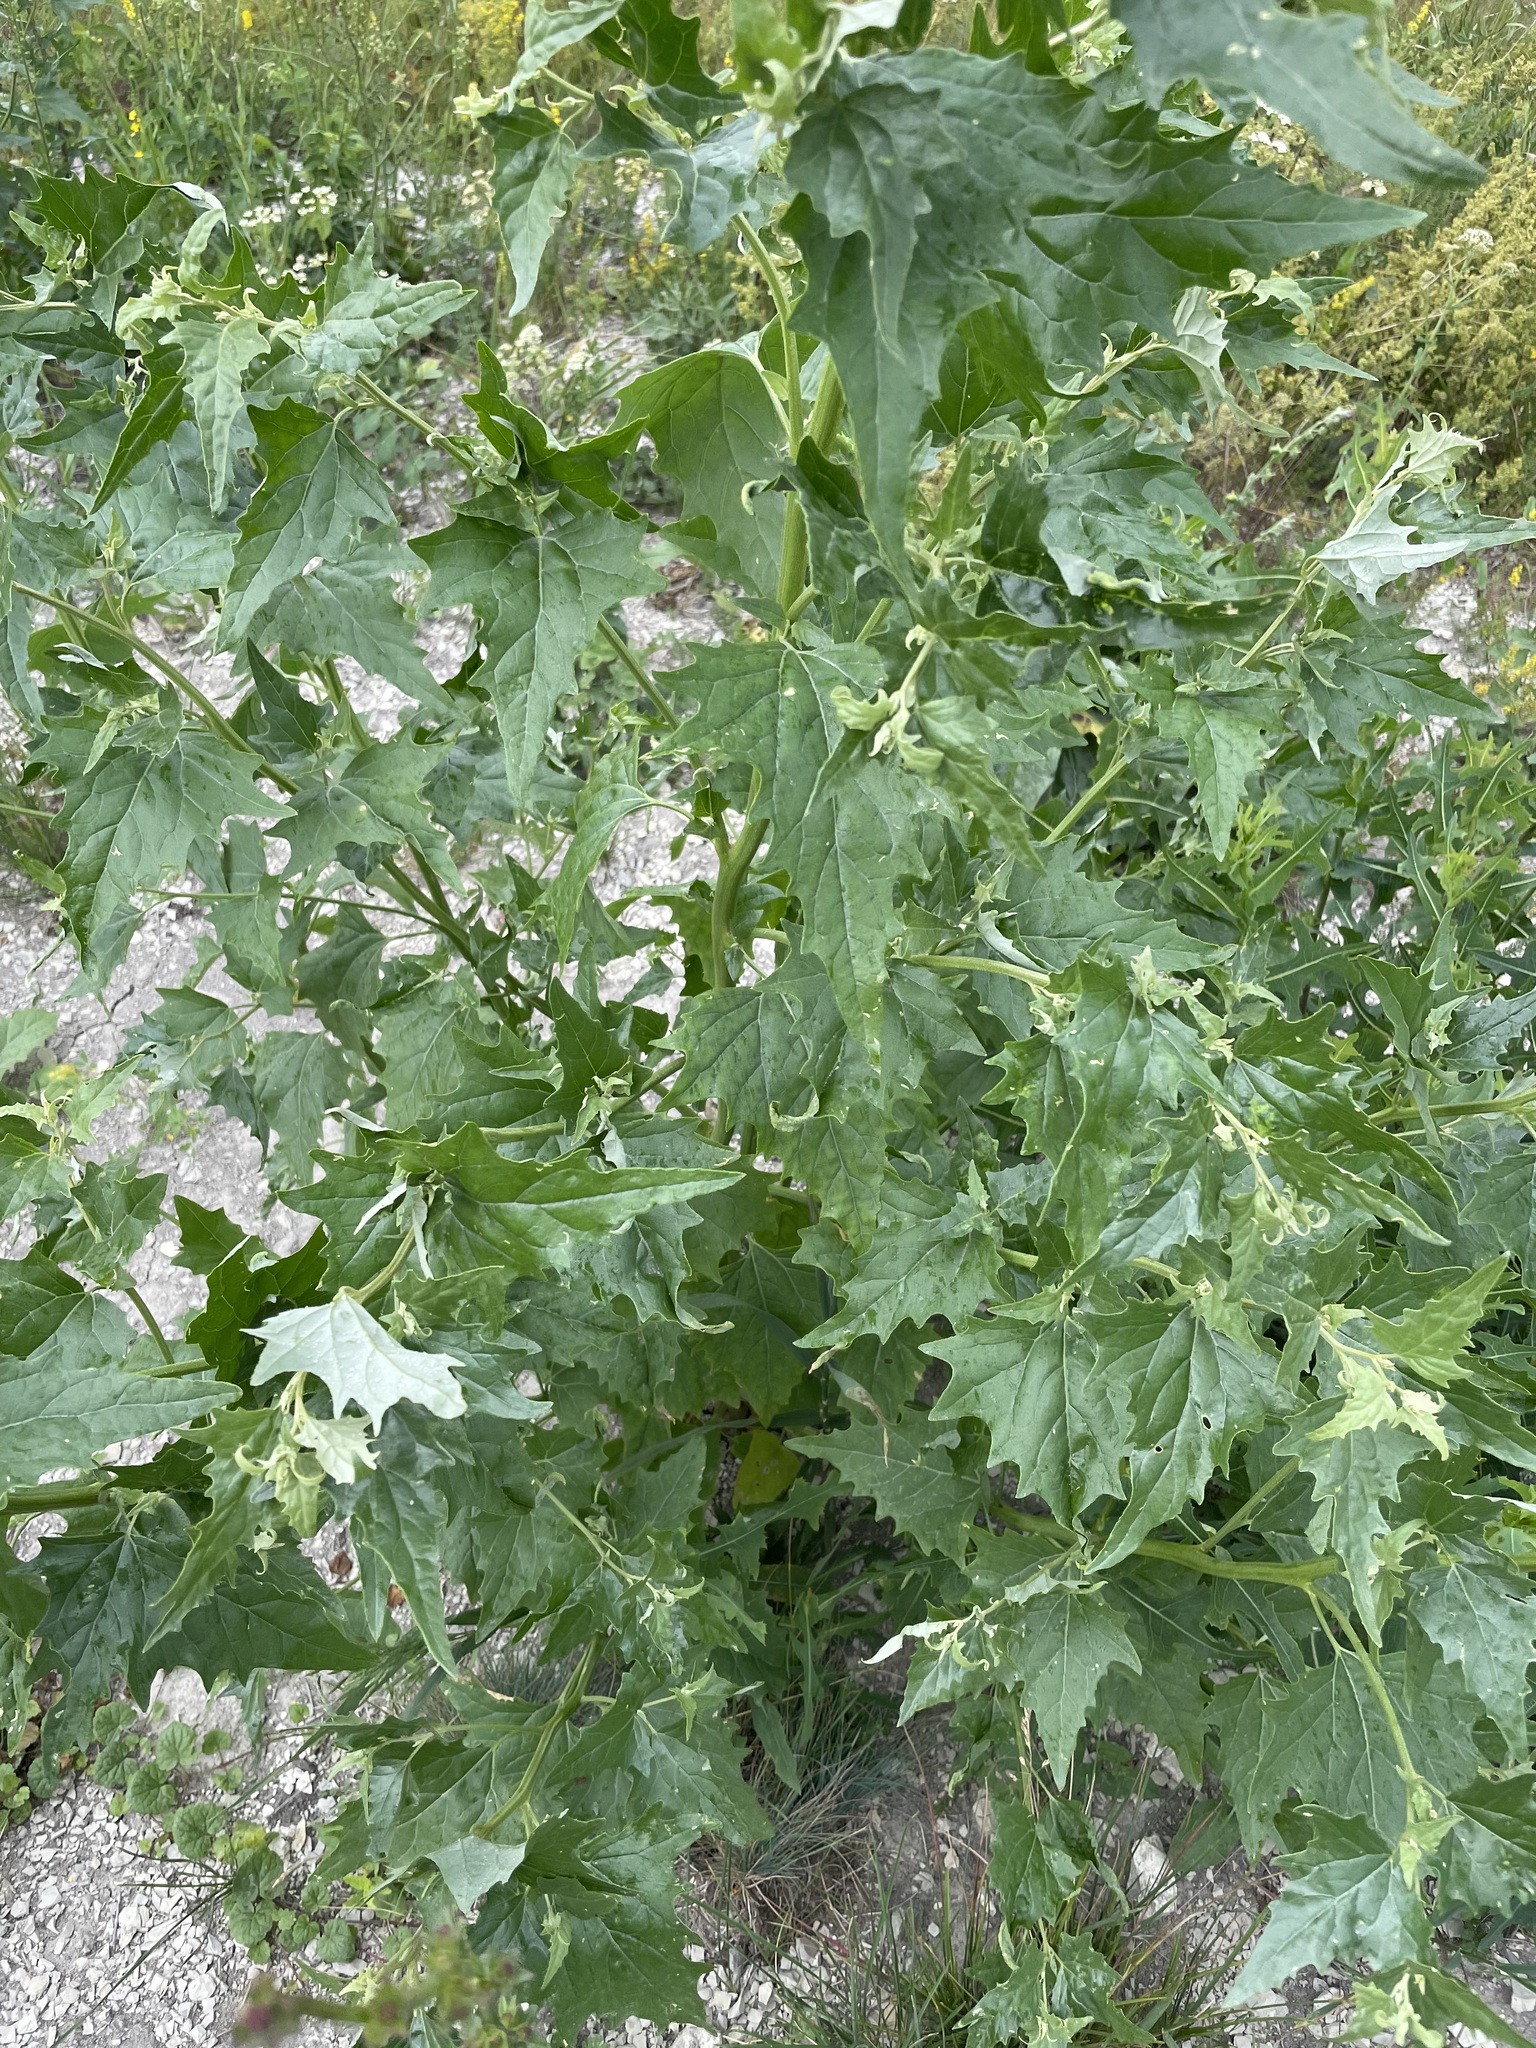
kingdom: Plantae
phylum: Tracheophyta
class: Magnoliopsida
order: Caryophyllales
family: Amaranthaceae
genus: Atriplex
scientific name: Atriplex sagittata
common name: Purple orache
